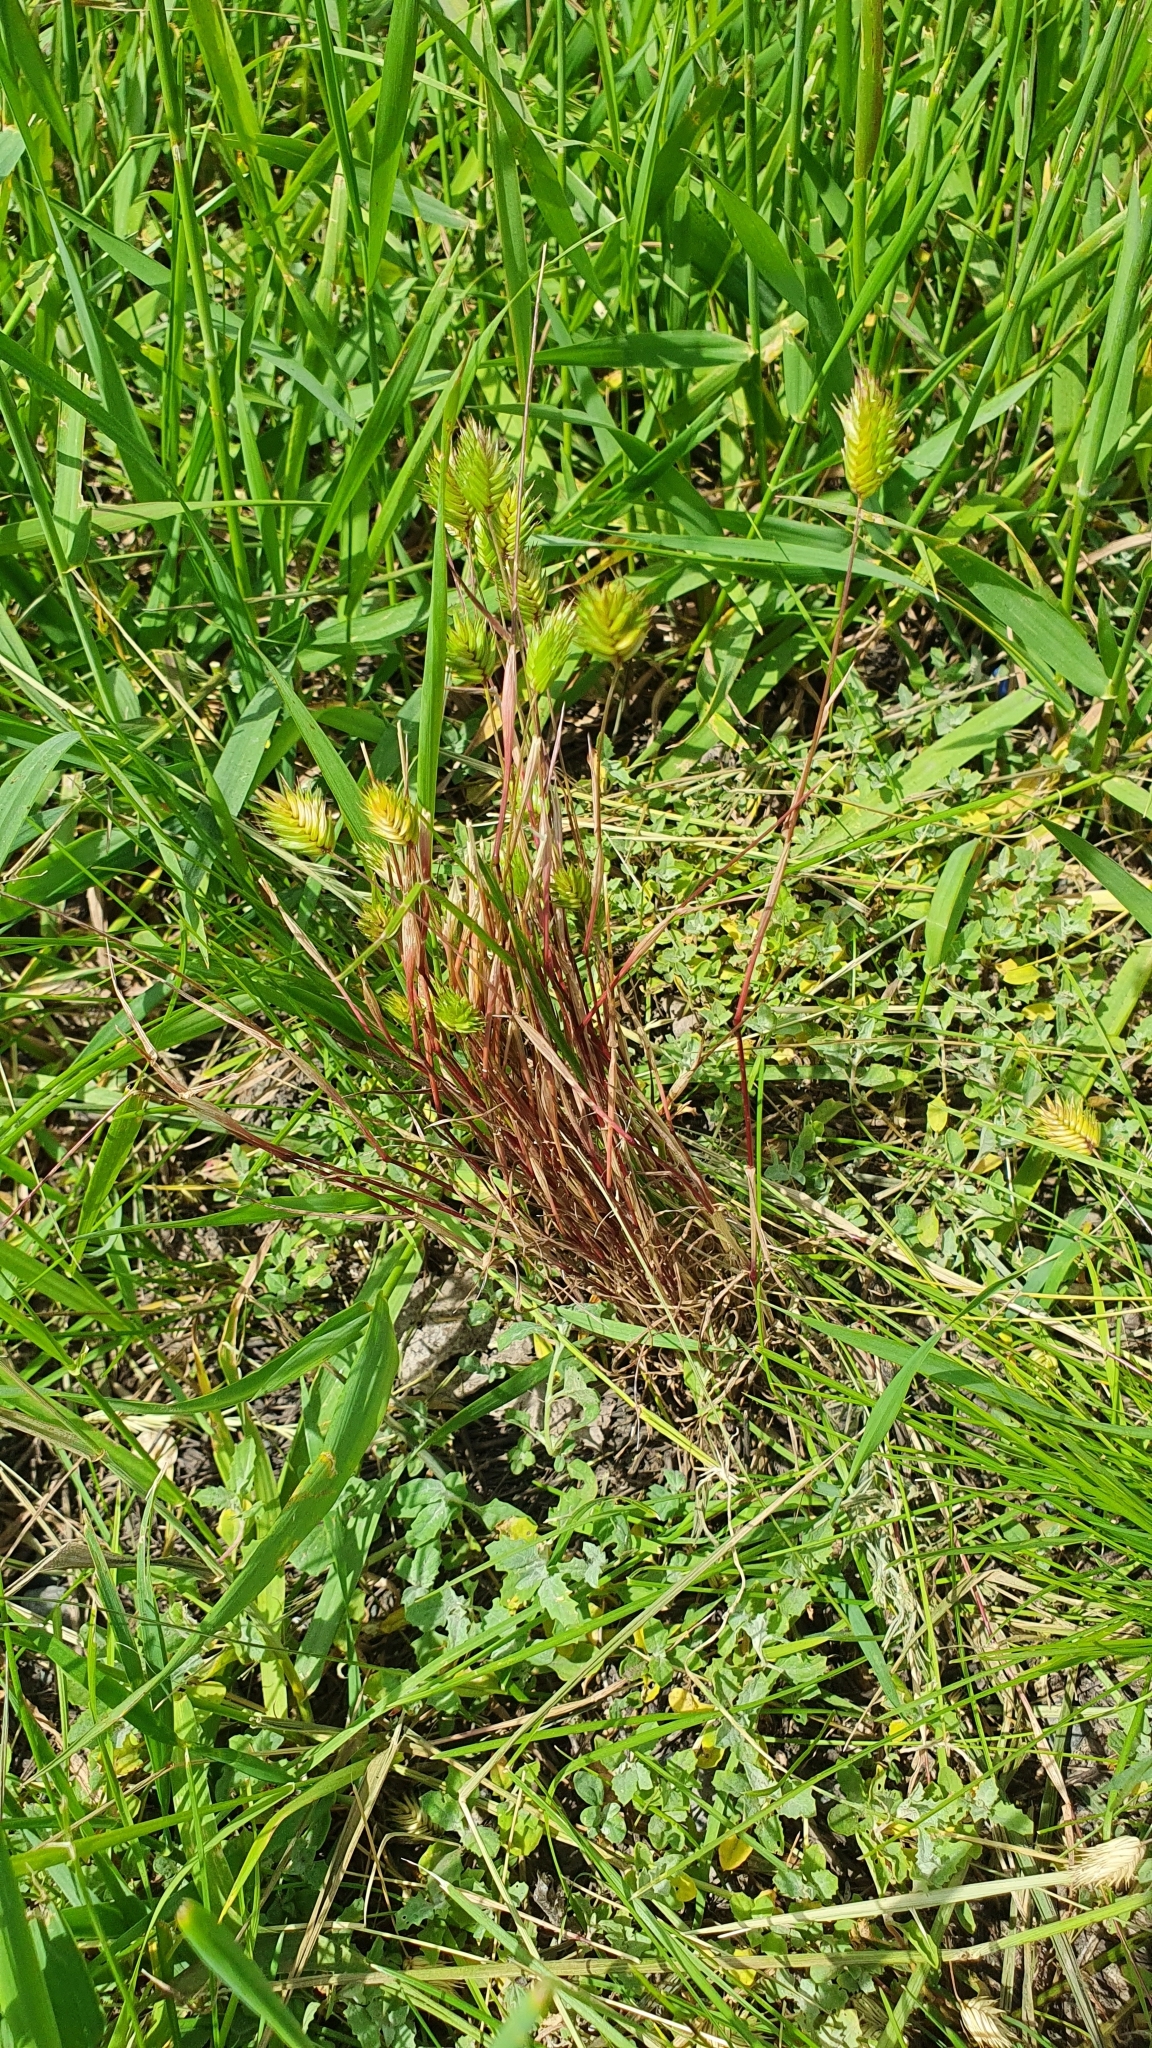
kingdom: Plantae
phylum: Tracheophyta
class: Liliopsida
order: Poales
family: Poaceae
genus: Eremopyrum
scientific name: Eremopyrum triticeum
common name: Annual wheatgrass
